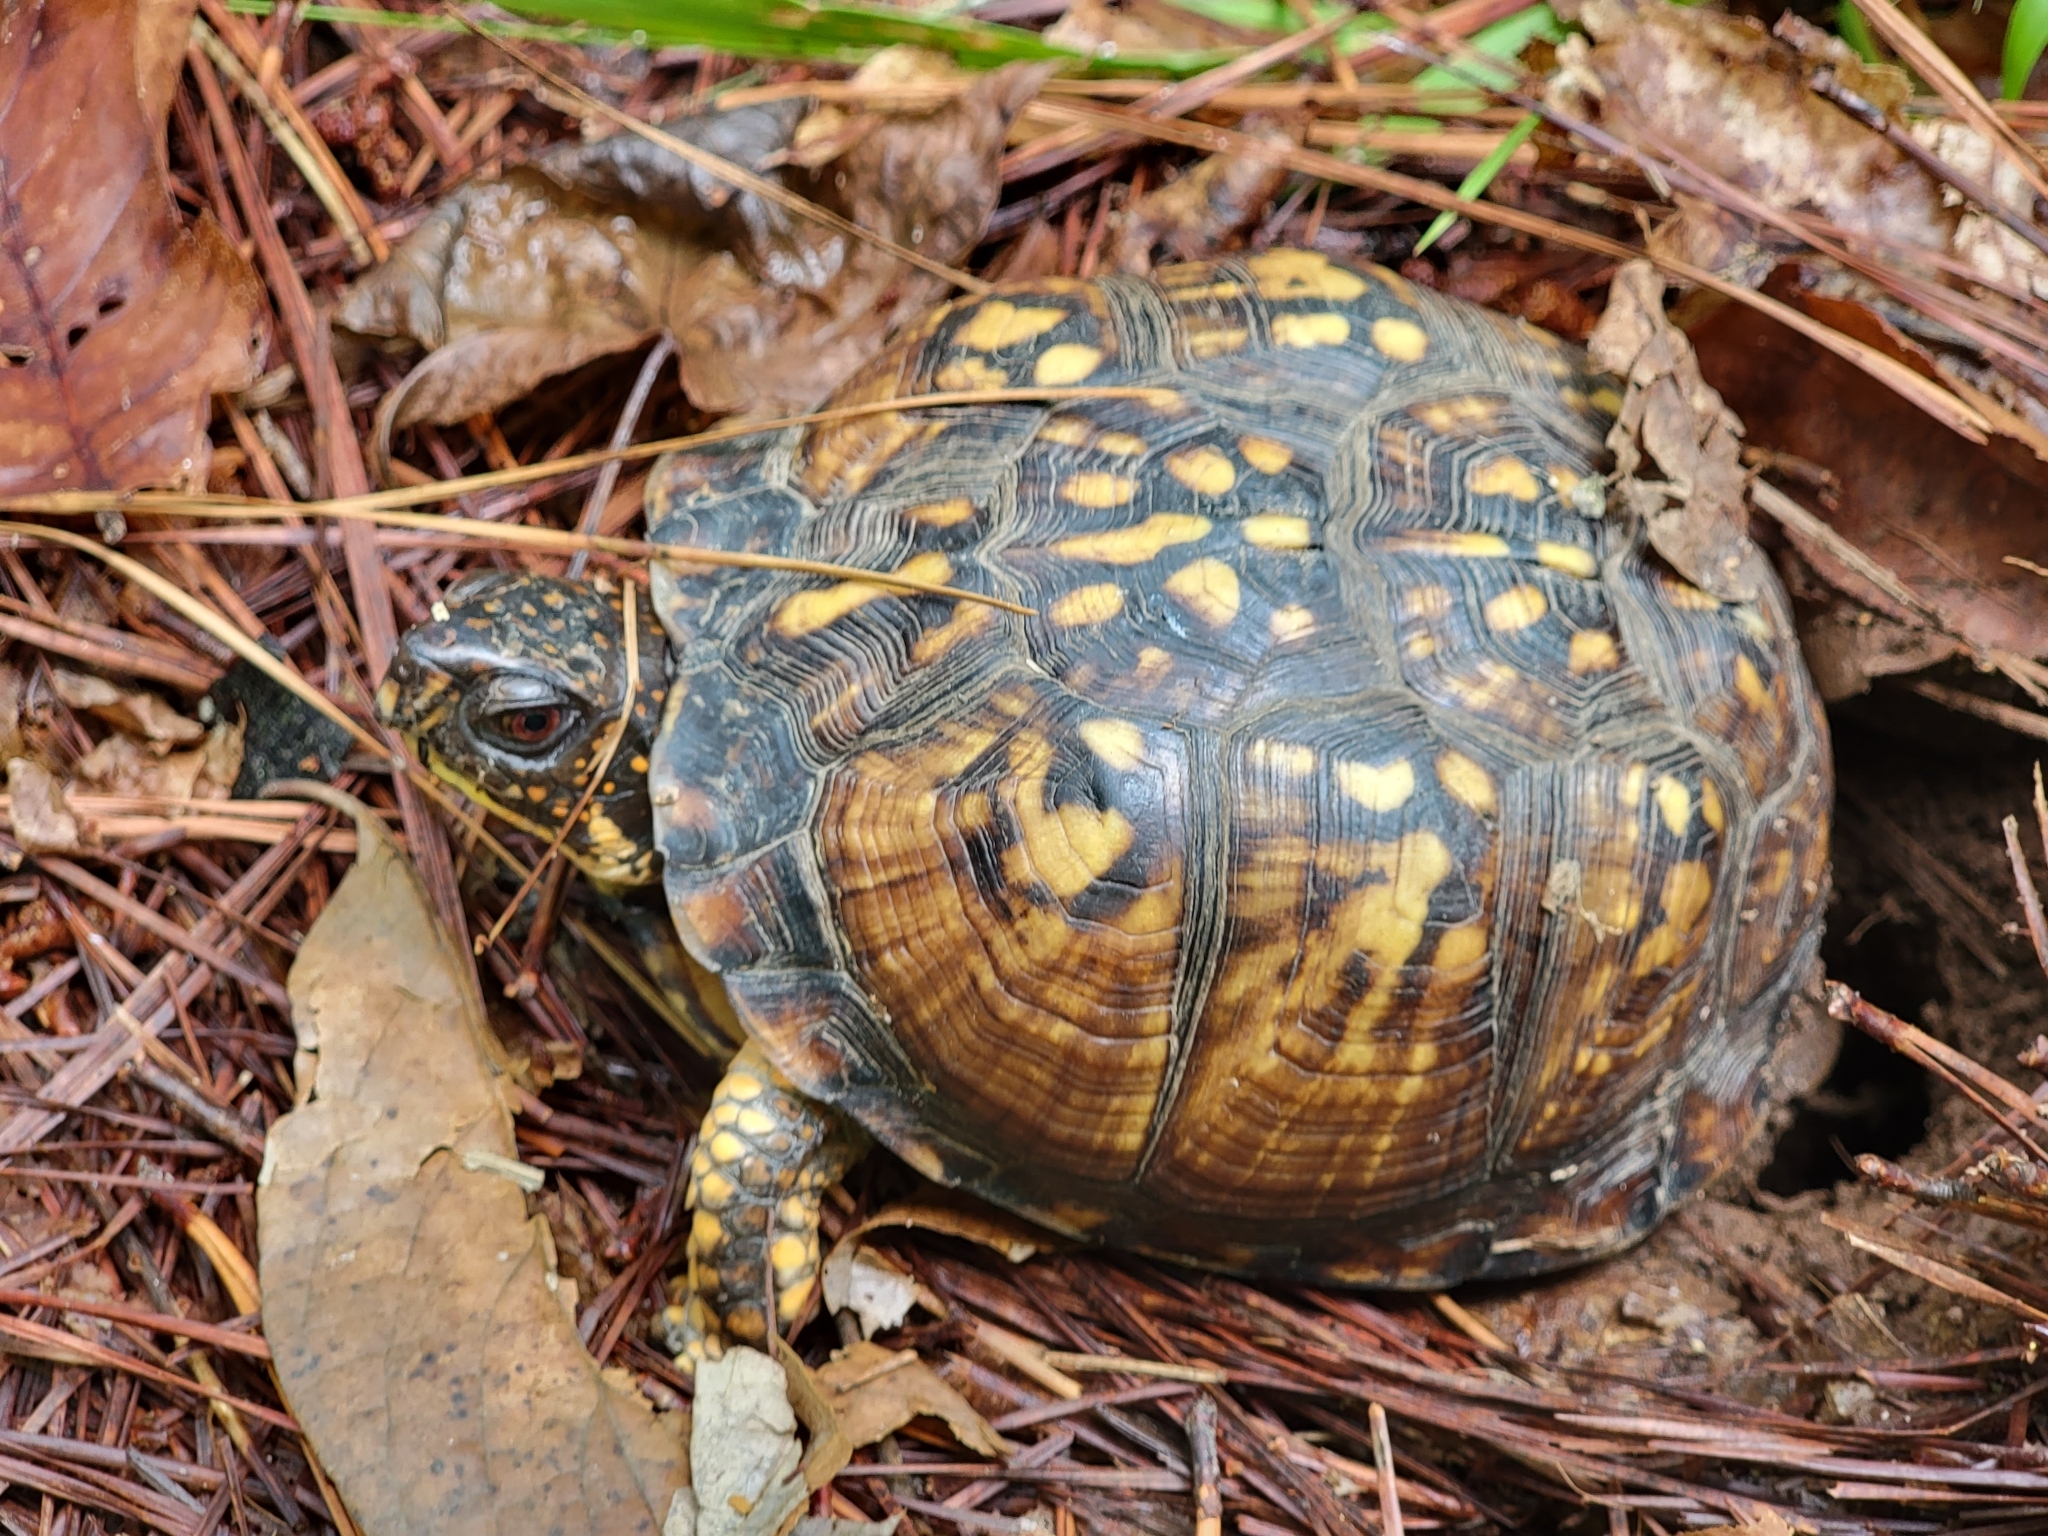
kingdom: Animalia
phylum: Chordata
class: Testudines
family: Emydidae
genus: Terrapene
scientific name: Terrapene carolina
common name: Common box turtle
